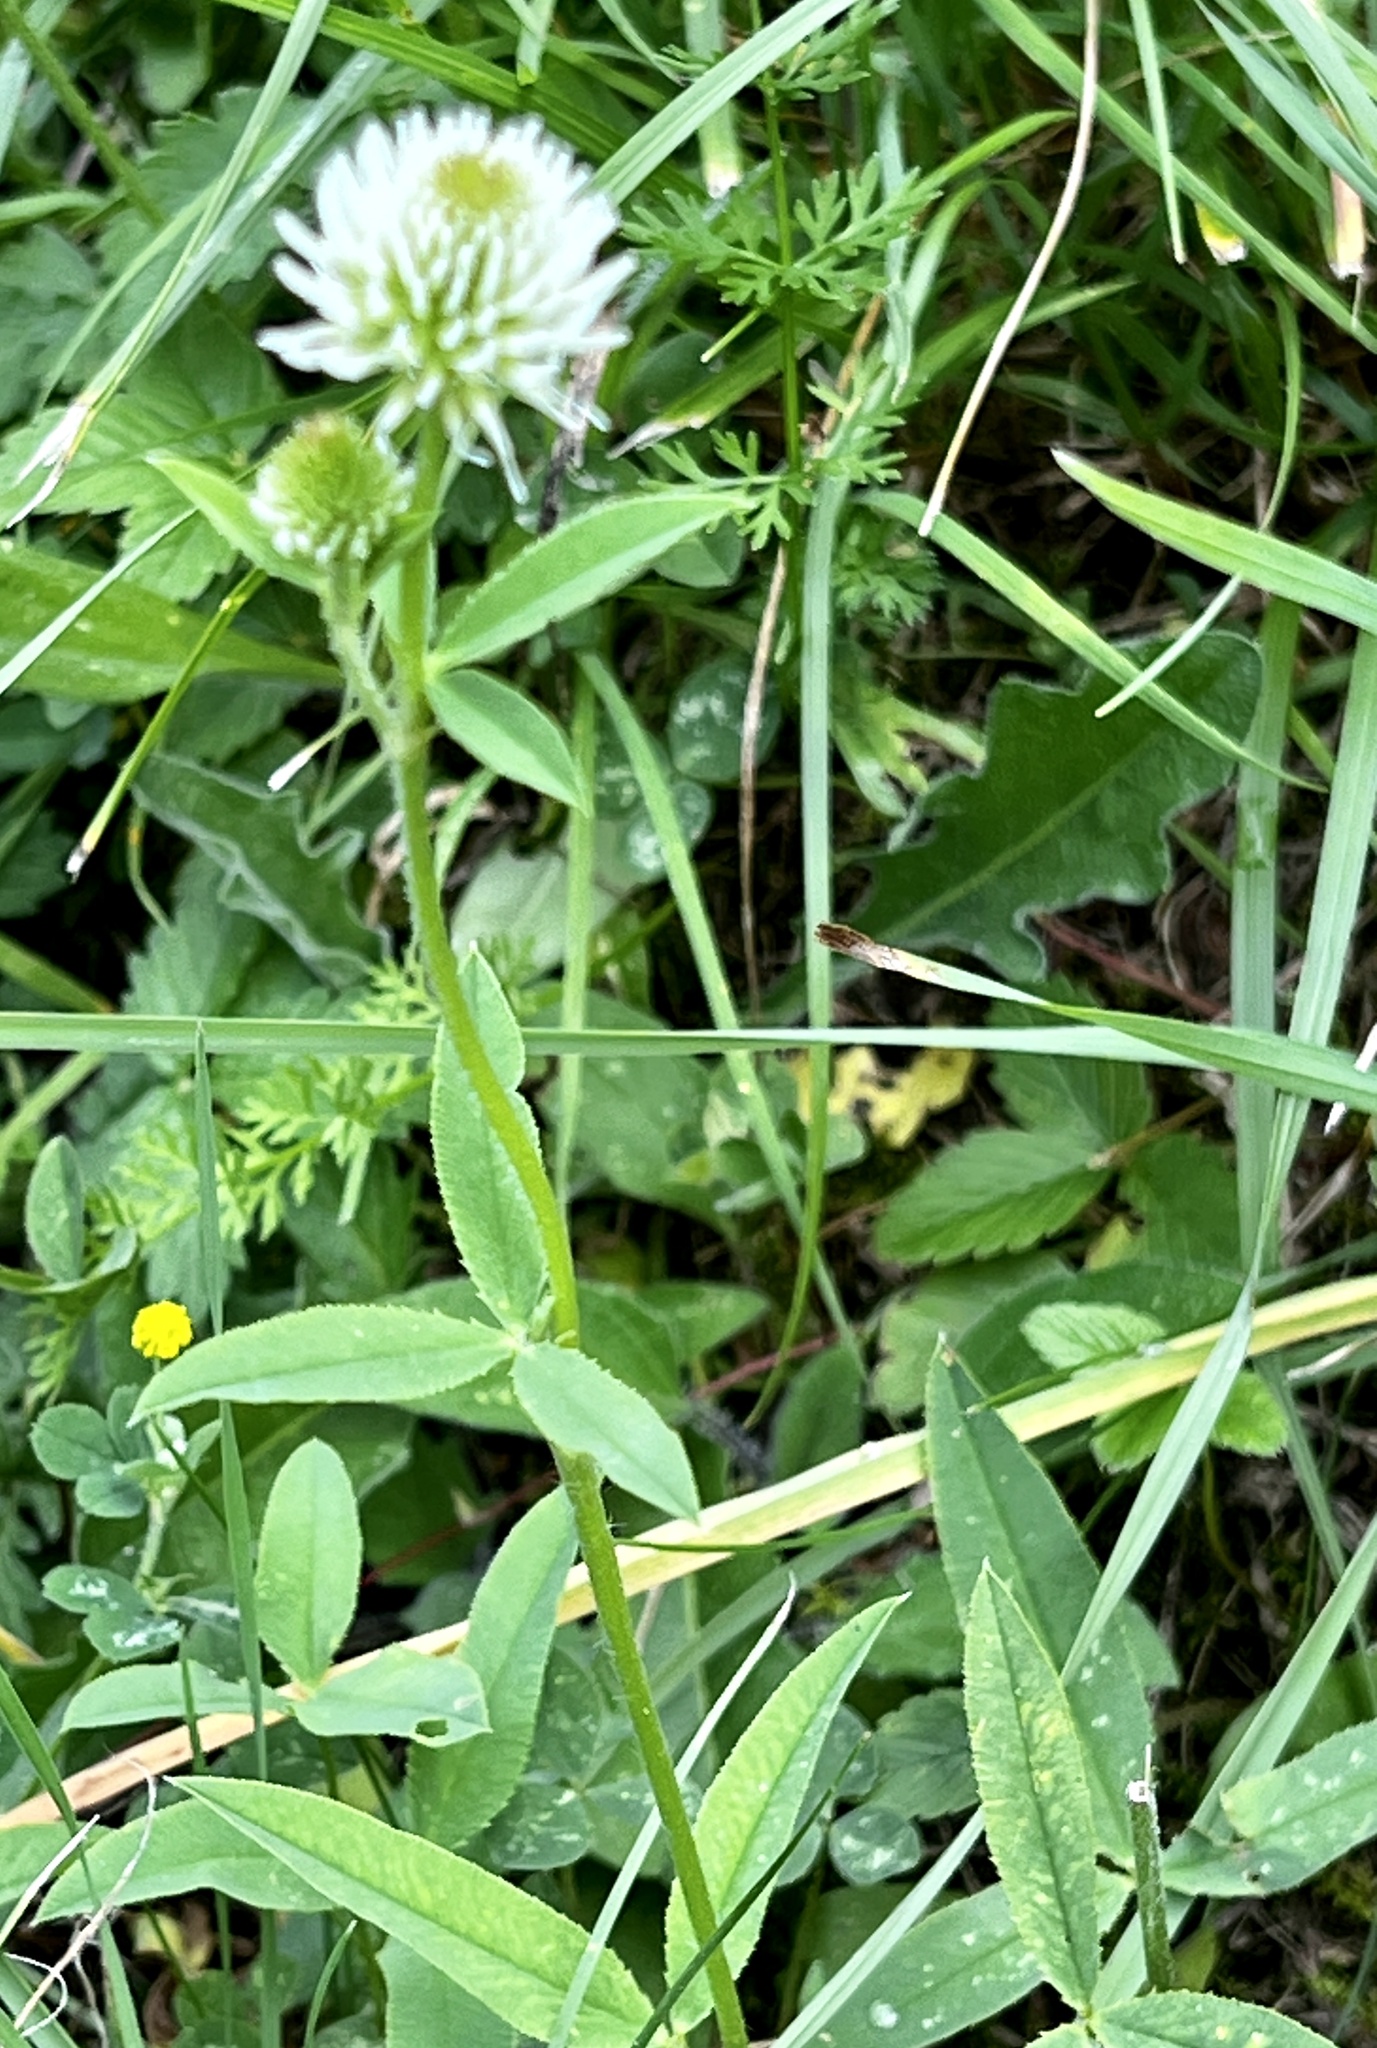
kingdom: Plantae
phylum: Tracheophyta
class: Magnoliopsida
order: Fabales
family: Fabaceae
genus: Trifolium
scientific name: Trifolium montanum
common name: Mountain clover
